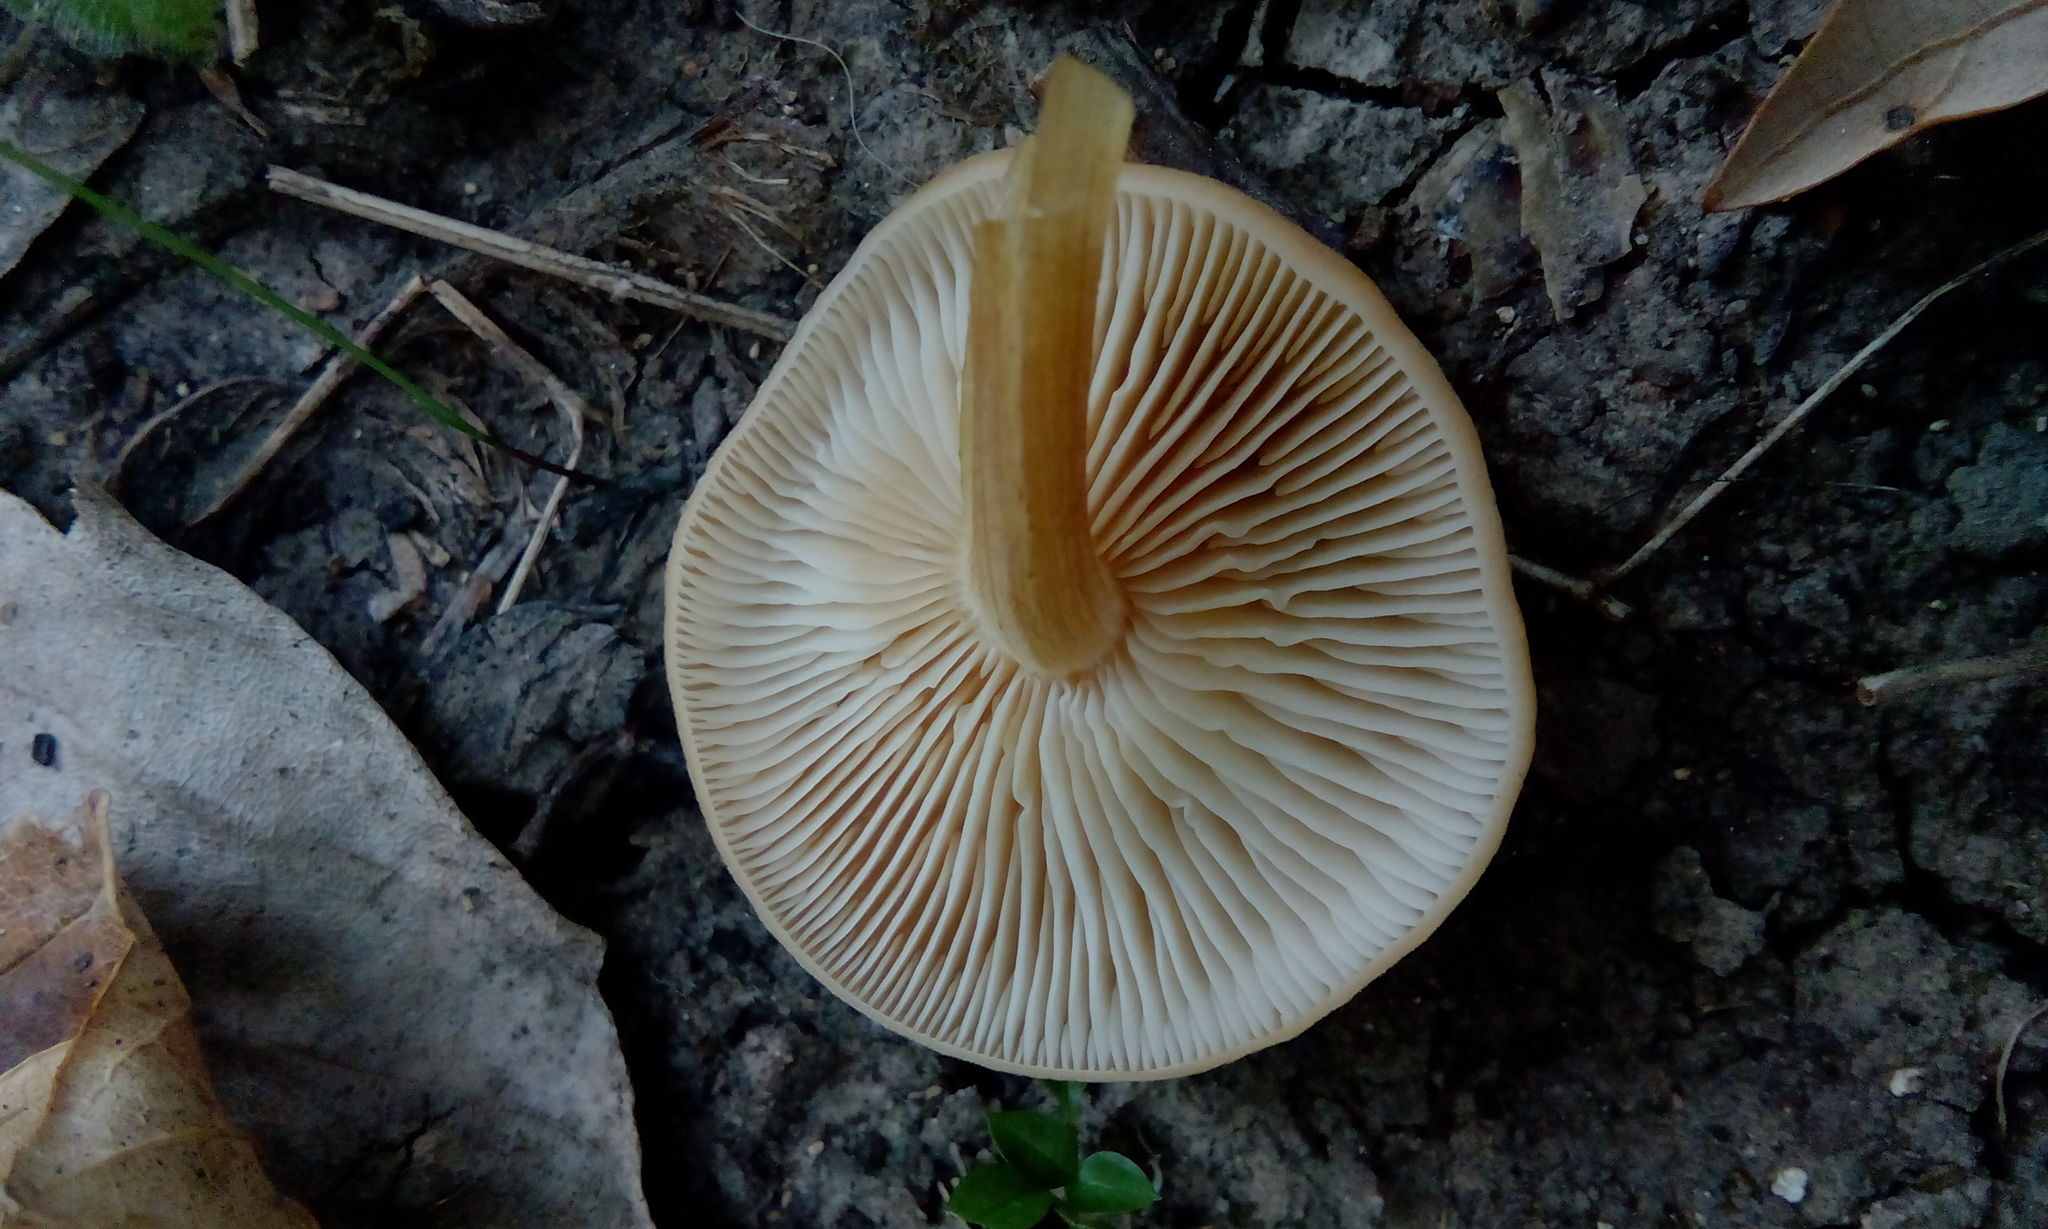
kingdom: Fungi
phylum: Basidiomycota
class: Agaricomycetes
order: Agaricales
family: Physalacriaceae
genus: Flammulina
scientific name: Flammulina
